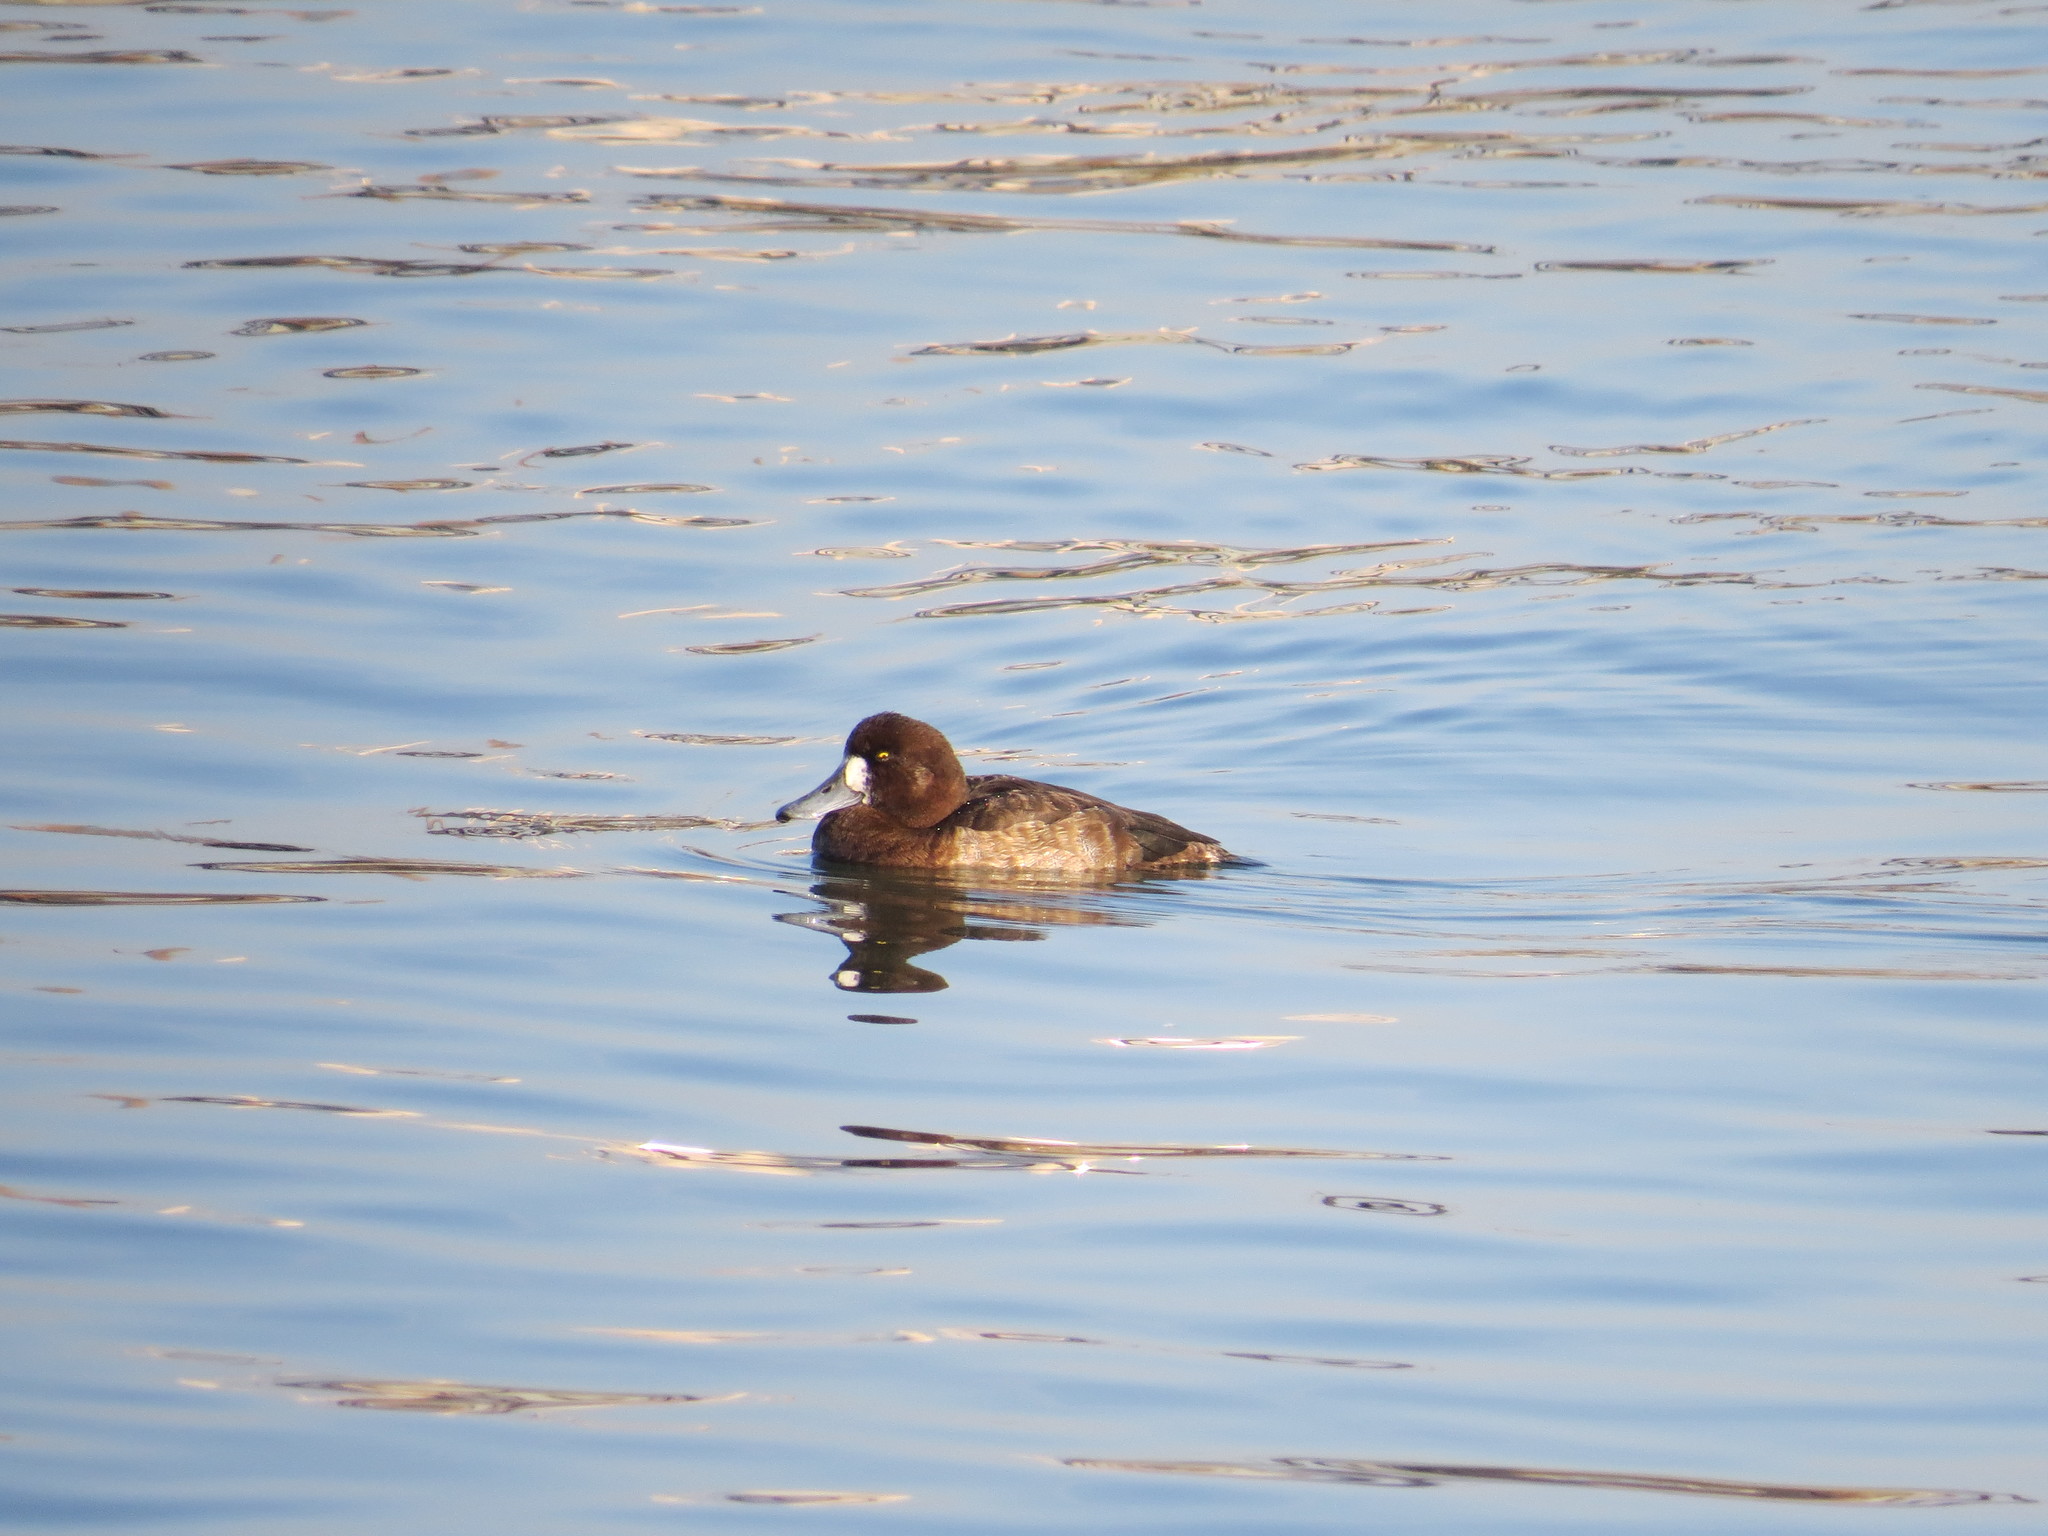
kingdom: Animalia
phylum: Chordata
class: Aves
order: Anseriformes
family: Anatidae
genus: Aythya
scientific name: Aythya marila
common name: Greater scaup
